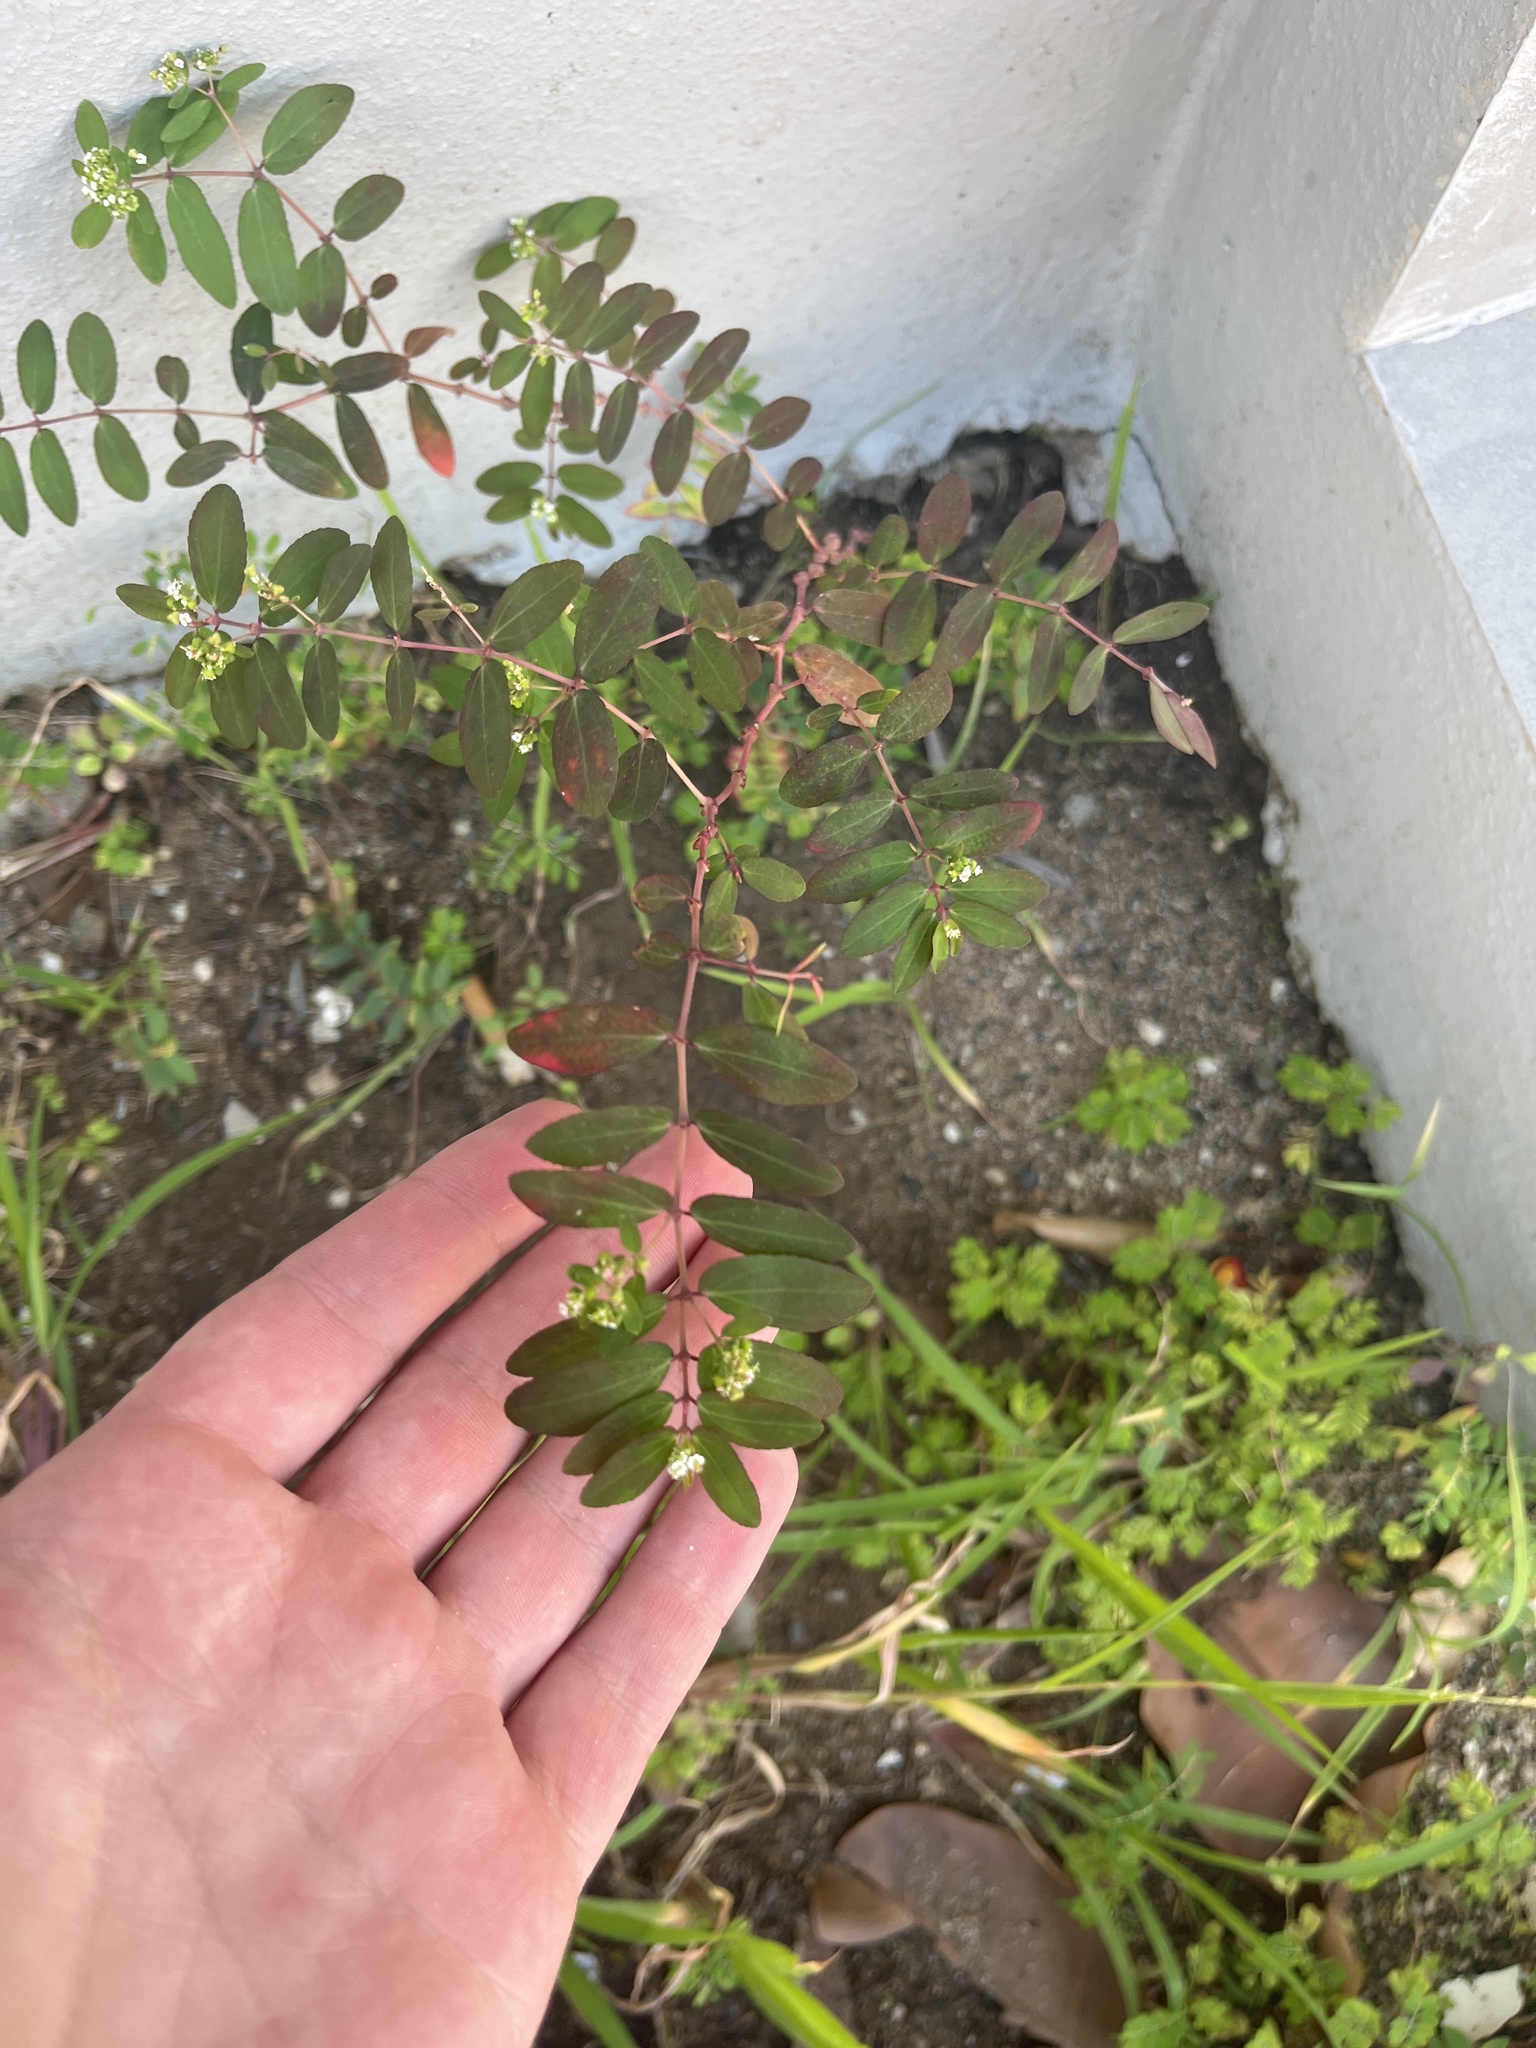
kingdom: Plantae
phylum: Tracheophyta
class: Magnoliopsida
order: Malpighiales
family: Euphorbiaceae
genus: Euphorbia
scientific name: Euphorbia hypericifolia
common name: Graceful sandmat
